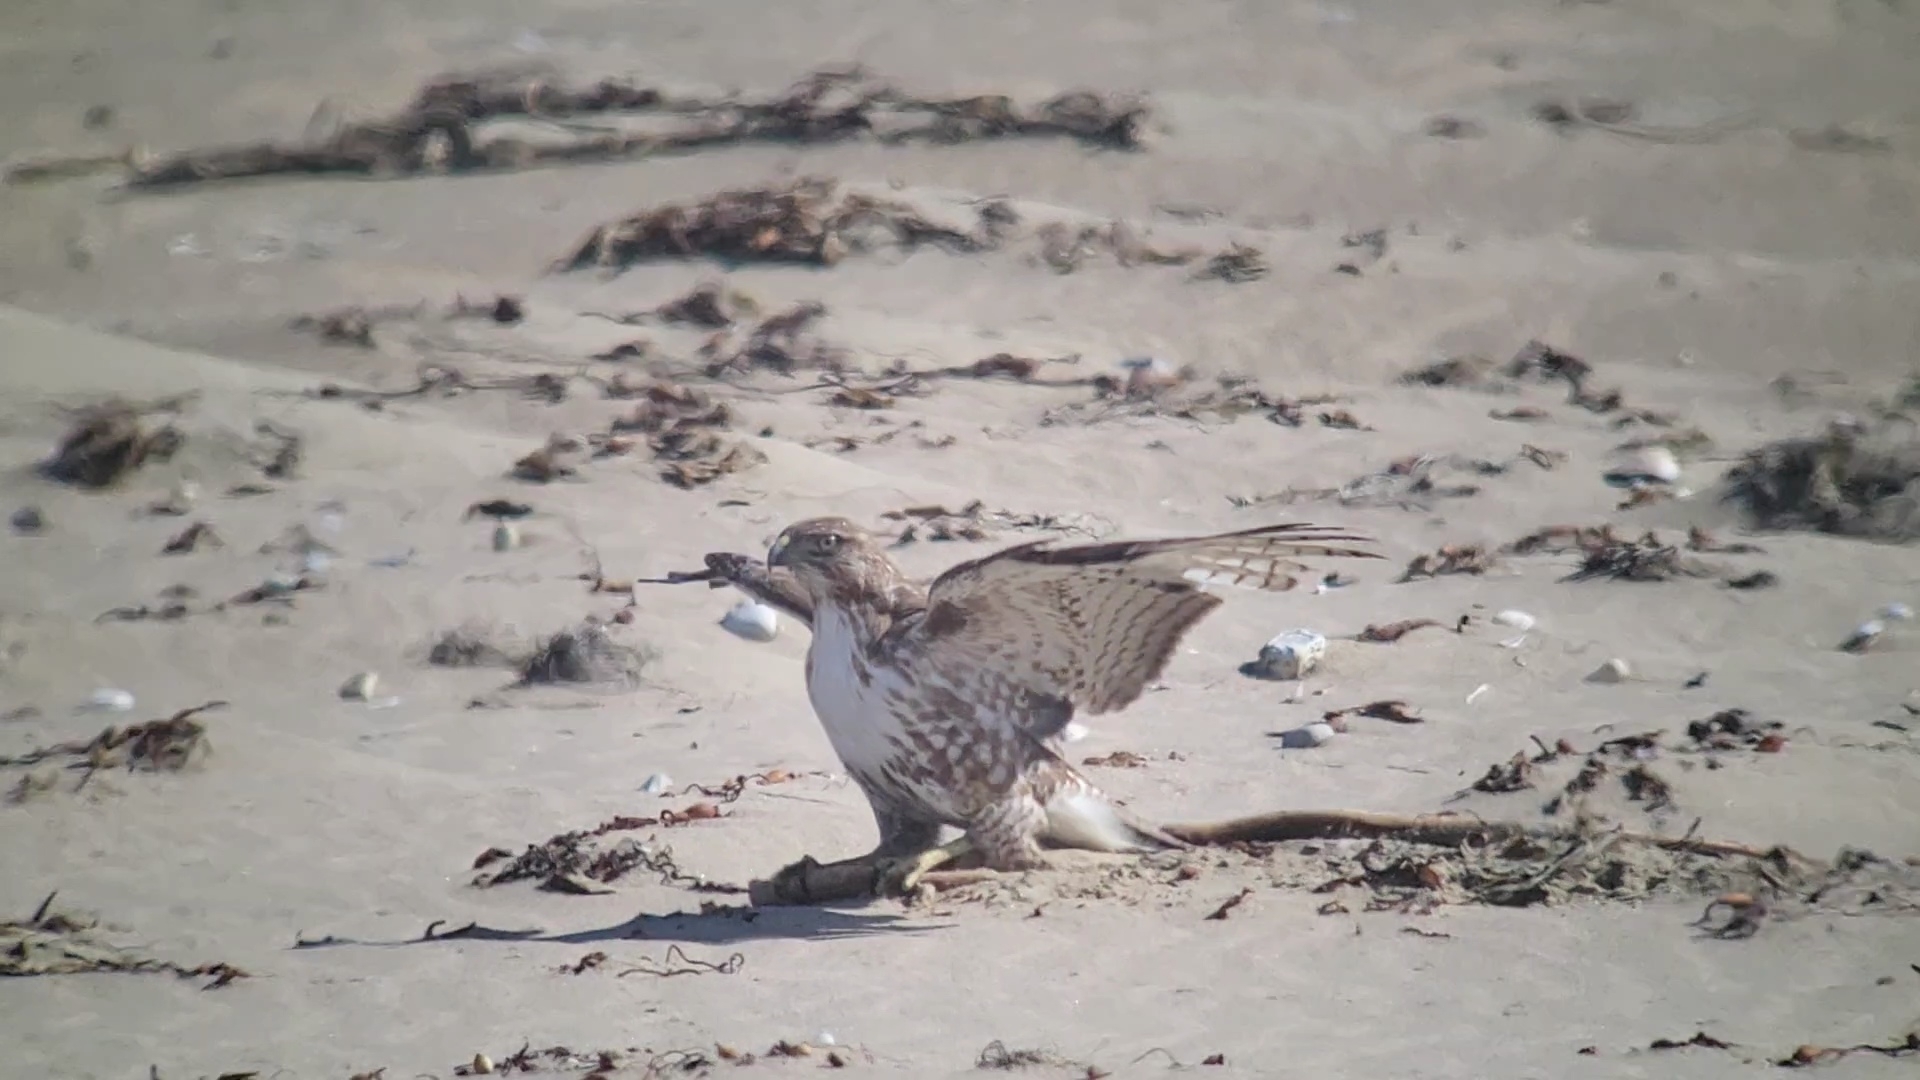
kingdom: Animalia
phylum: Chordata
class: Aves
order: Accipitriformes
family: Accipitridae
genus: Buteo
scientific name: Buteo jamaicensis
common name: Red-tailed hawk
